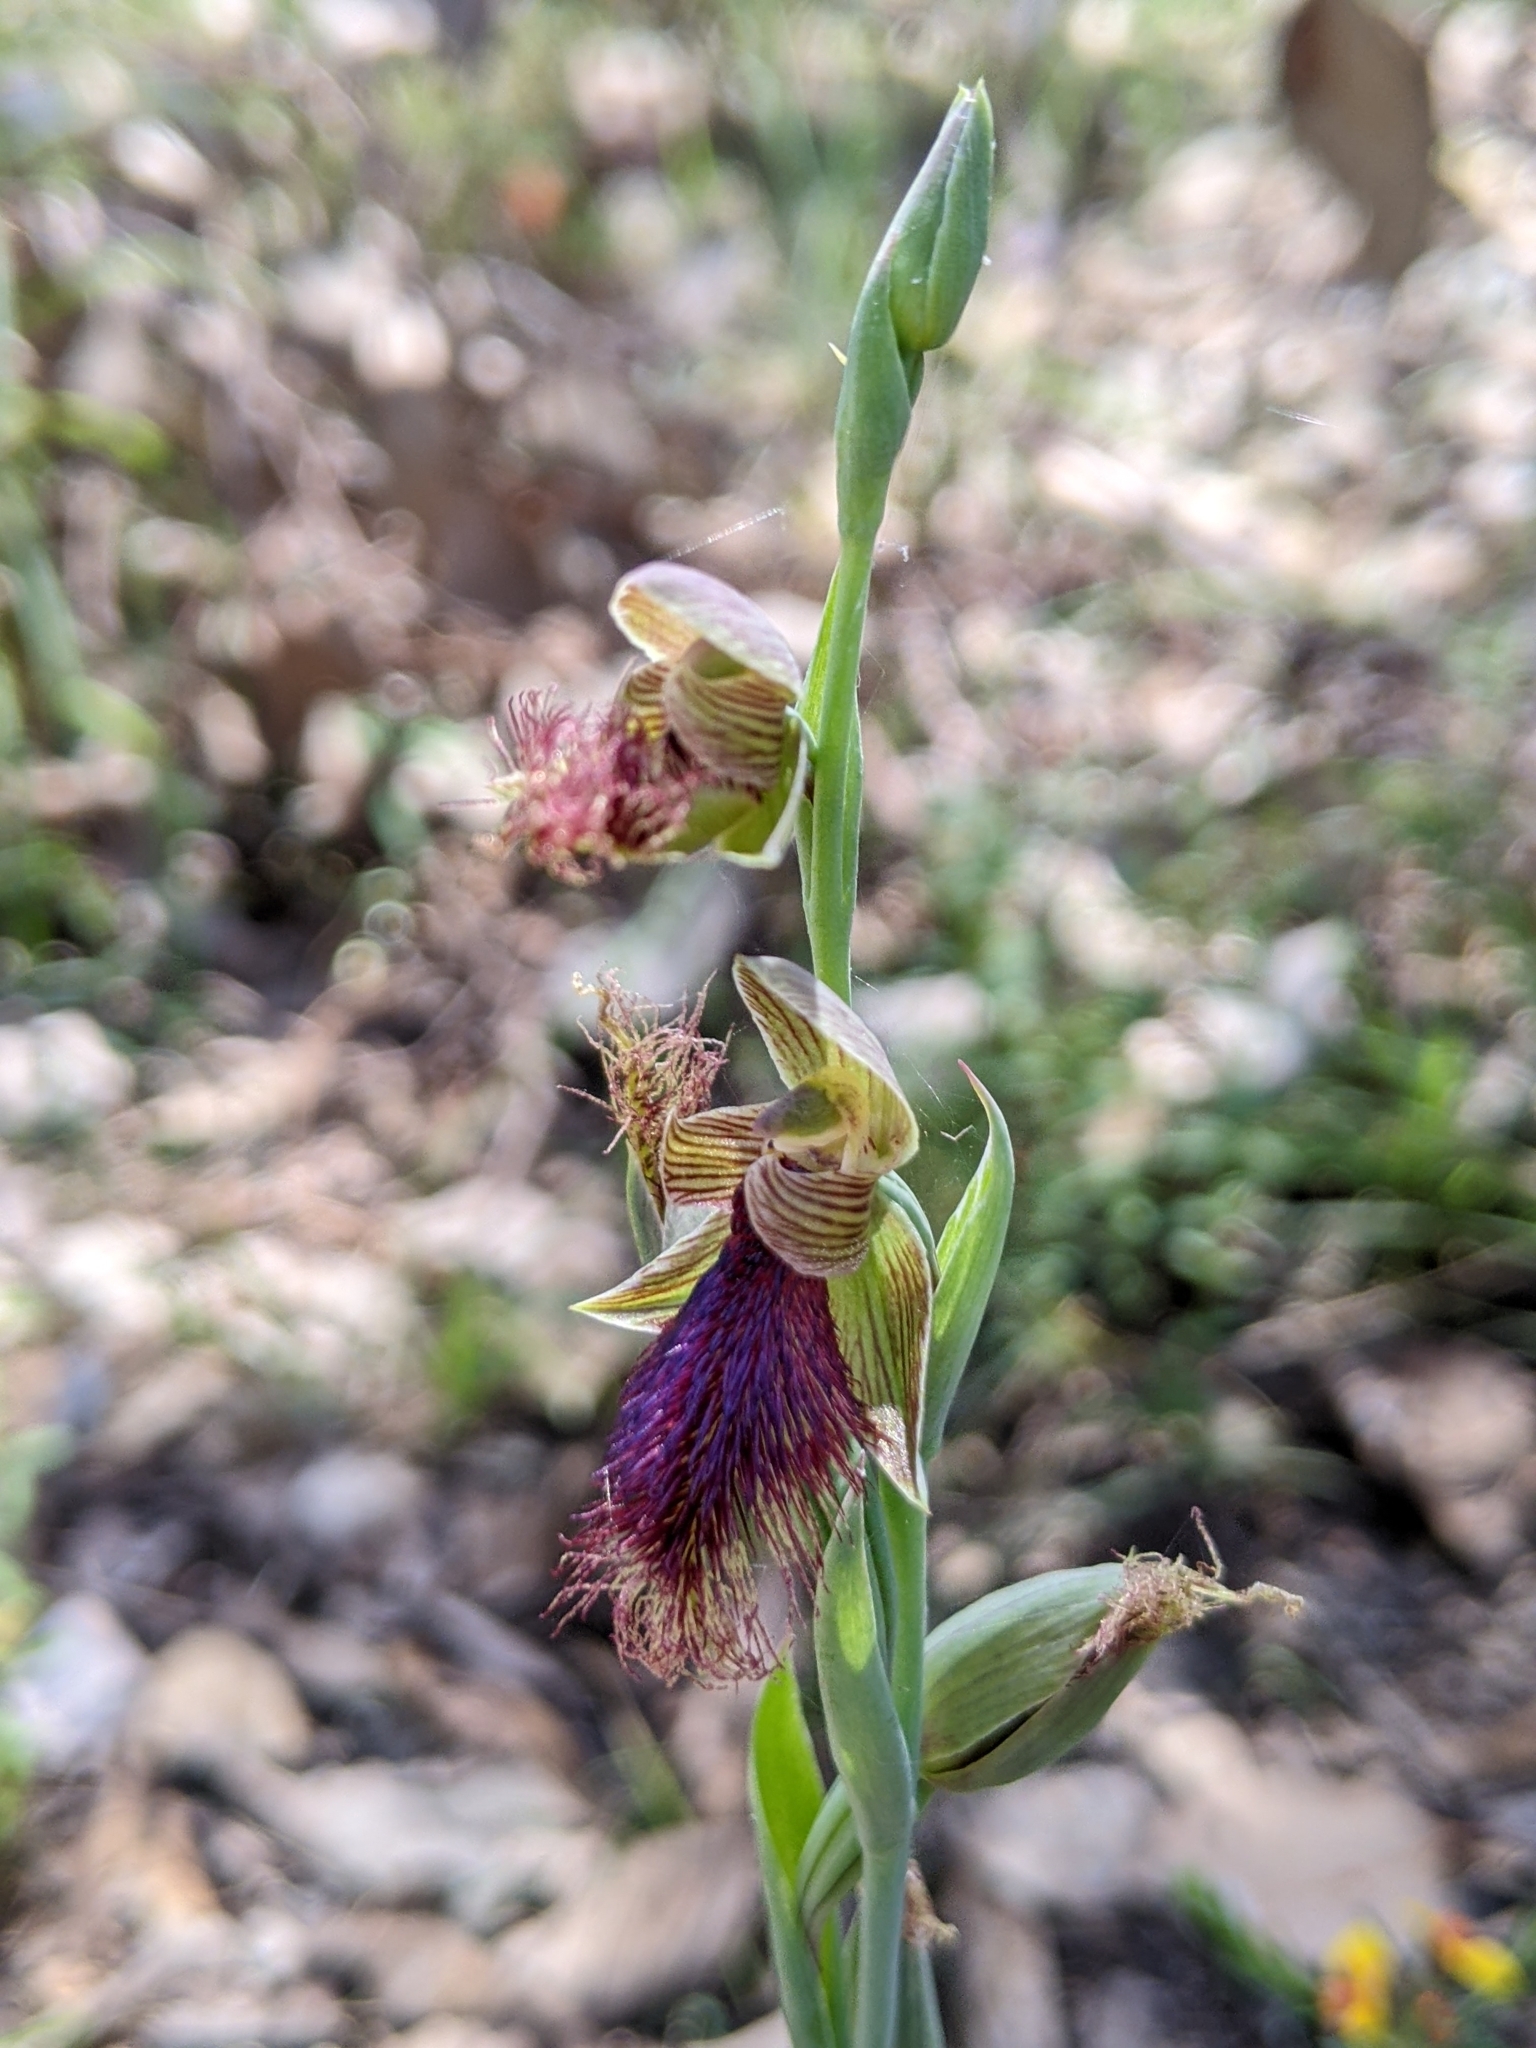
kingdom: Plantae
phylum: Tracheophyta
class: Liliopsida
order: Asparagales
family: Orchidaceae
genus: Calochilus
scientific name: Calochilus robertsonii
